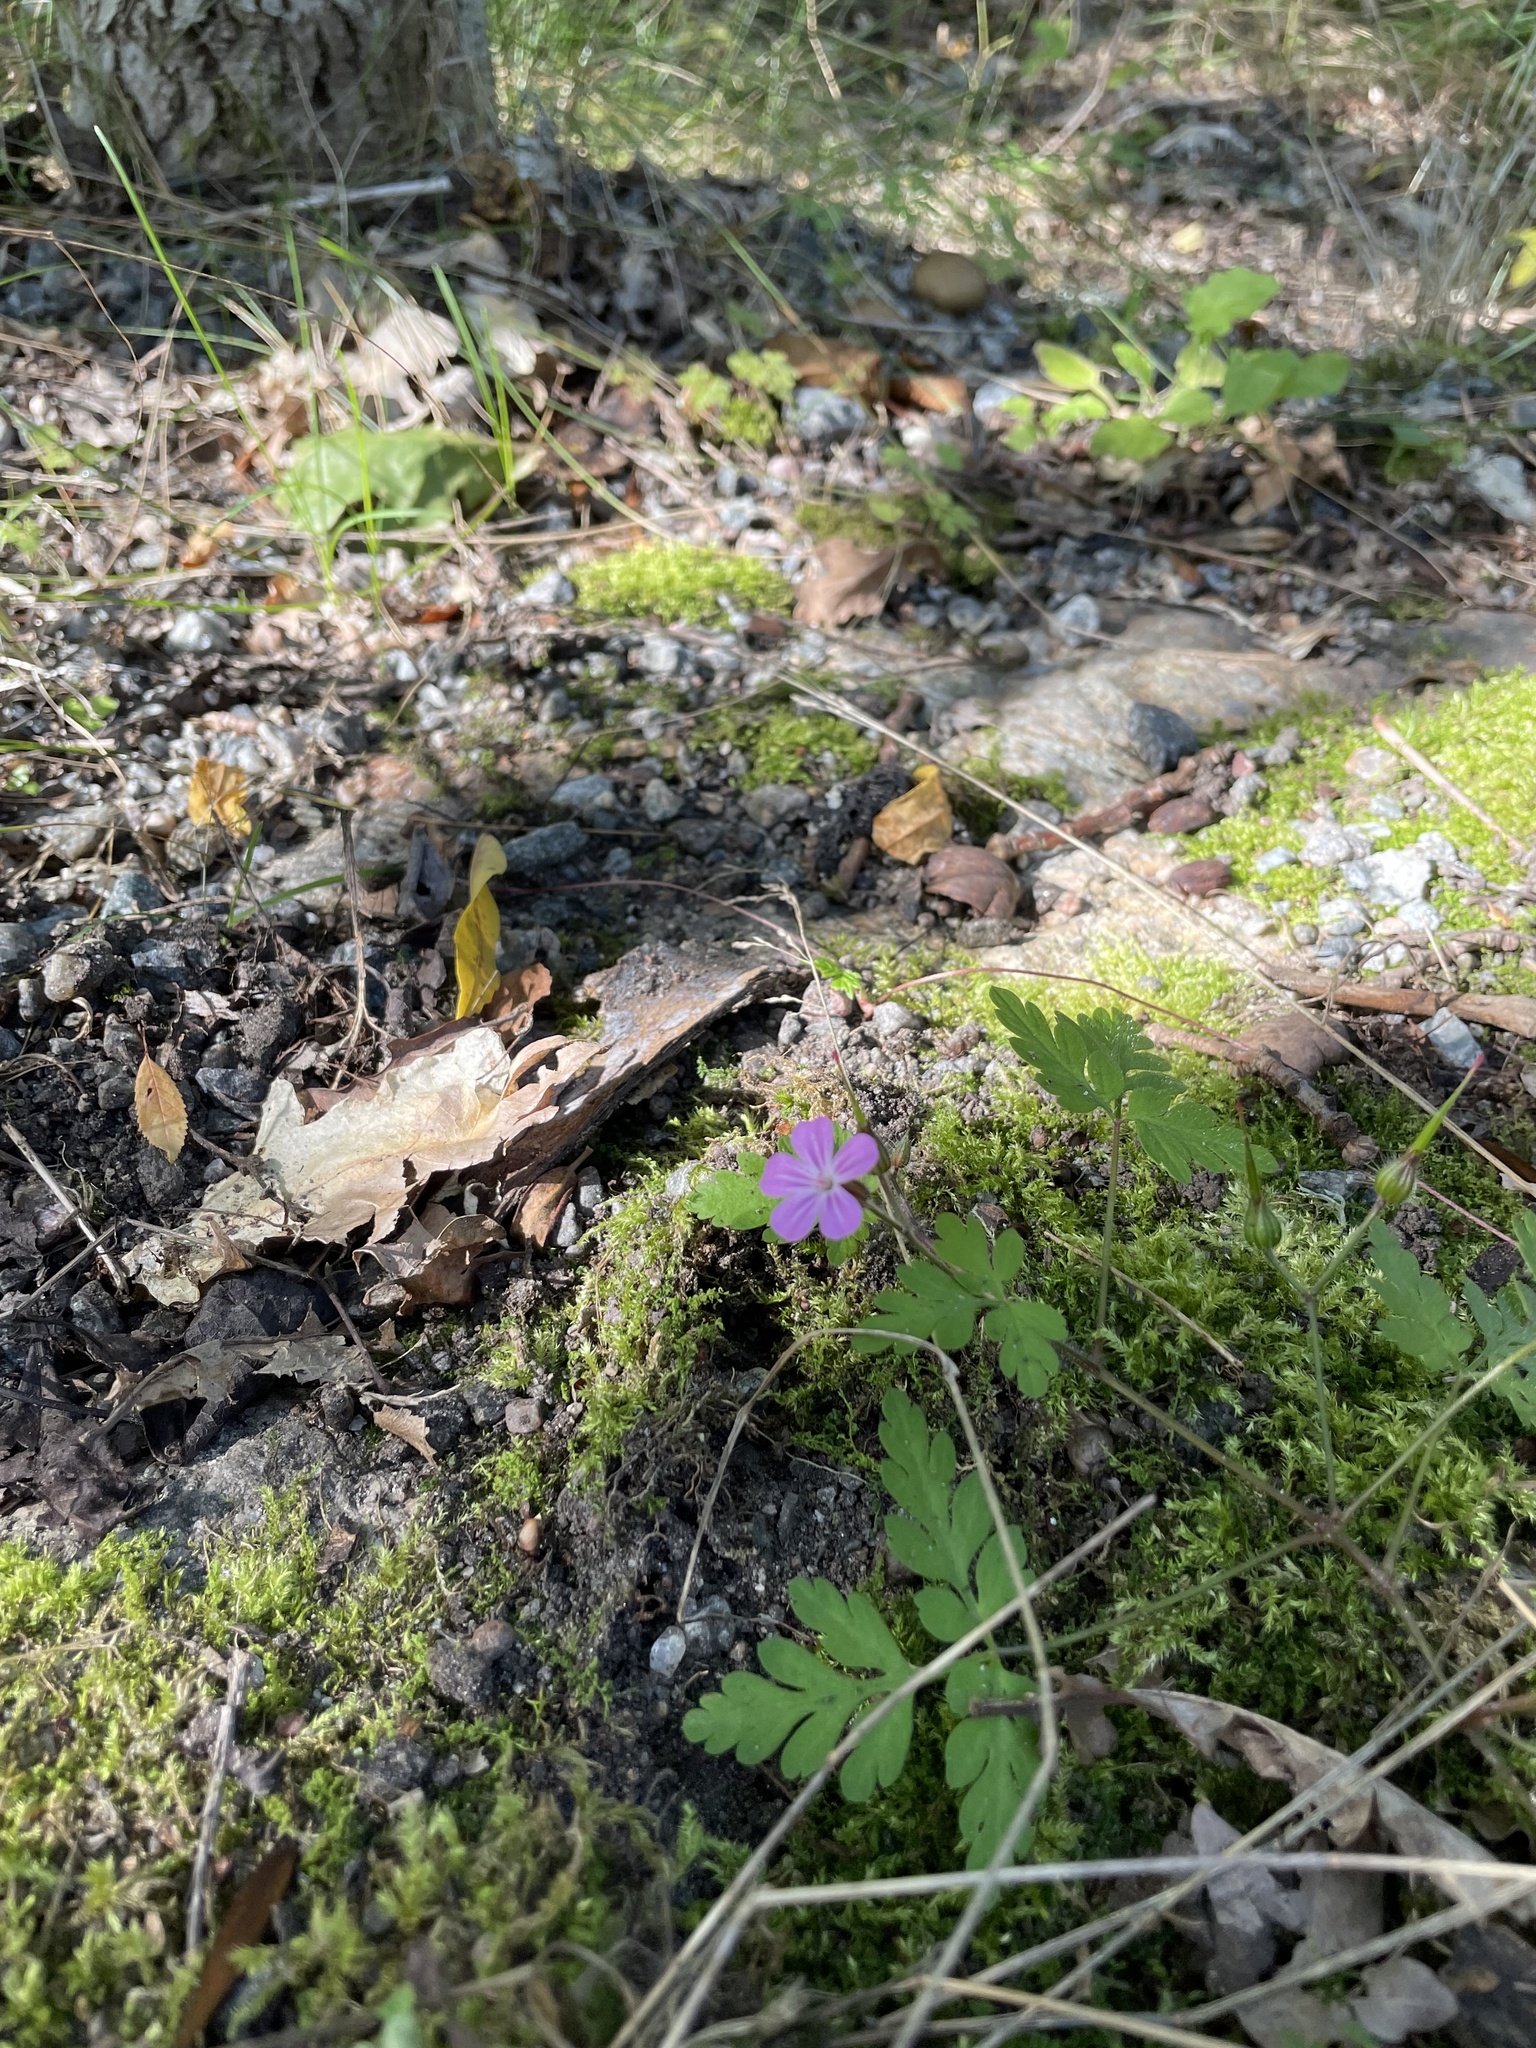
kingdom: Plantae
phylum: Tracheophyta
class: Magnoliopsida
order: Geraniales
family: Geraniaceae
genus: Geranium
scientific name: Geranium robertianum
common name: Herb-robert
